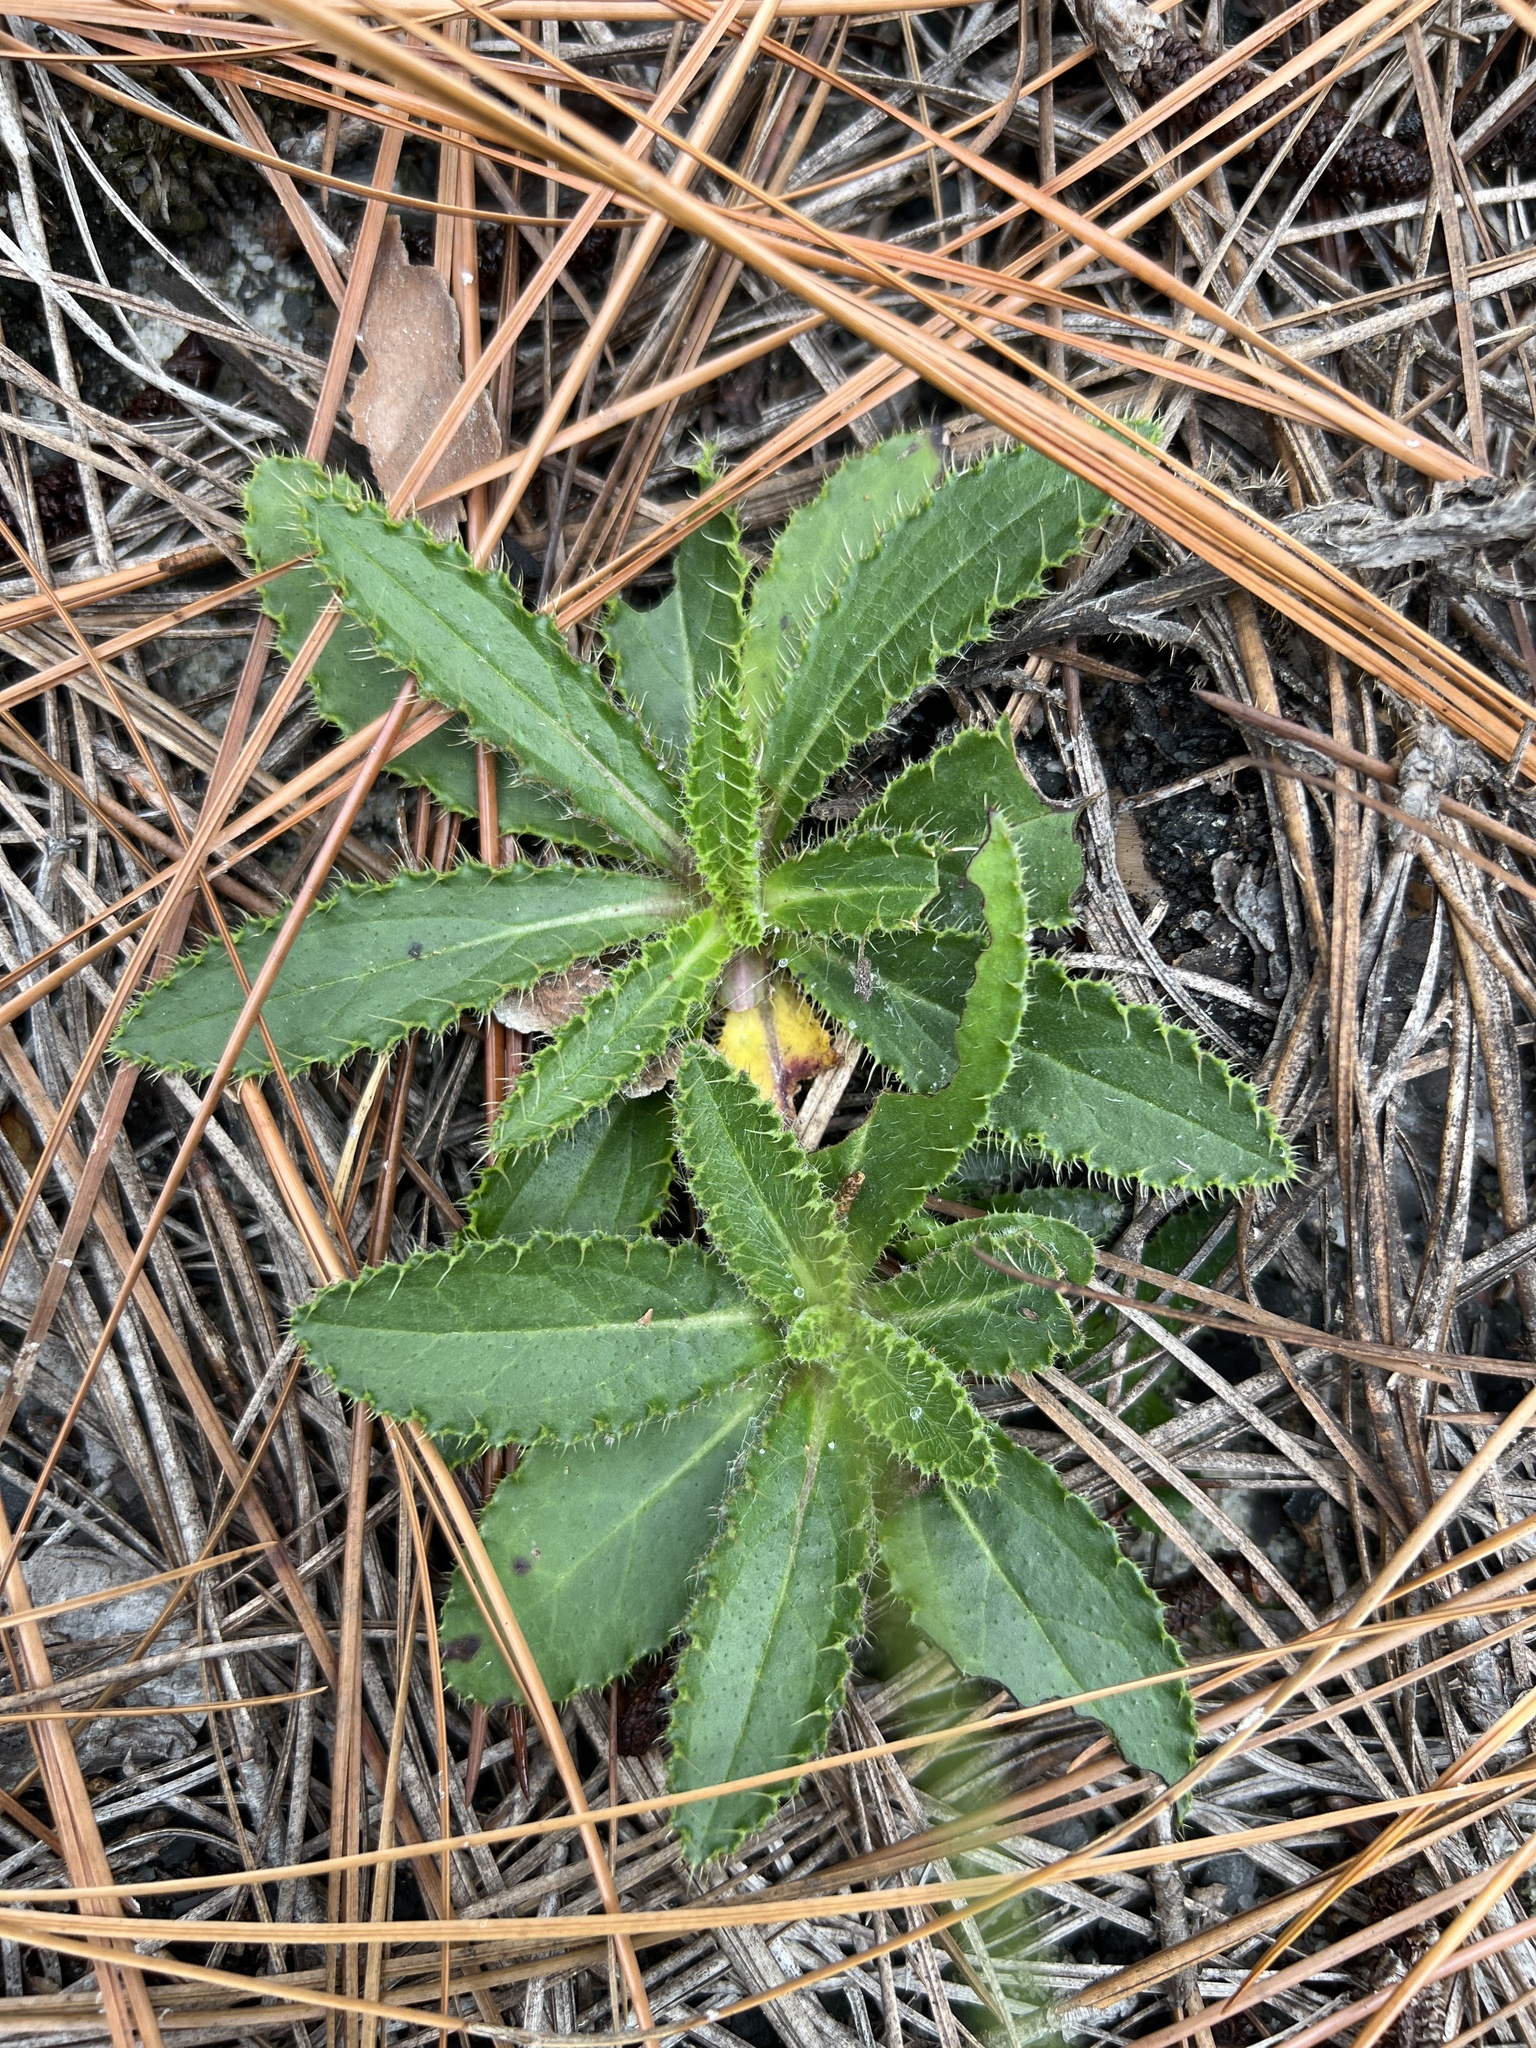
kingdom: Plantae
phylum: Tracheophyta
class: Magnoliopsida
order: Asterales
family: Asteraceae
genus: Cirsium
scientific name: Cirsium repandum
